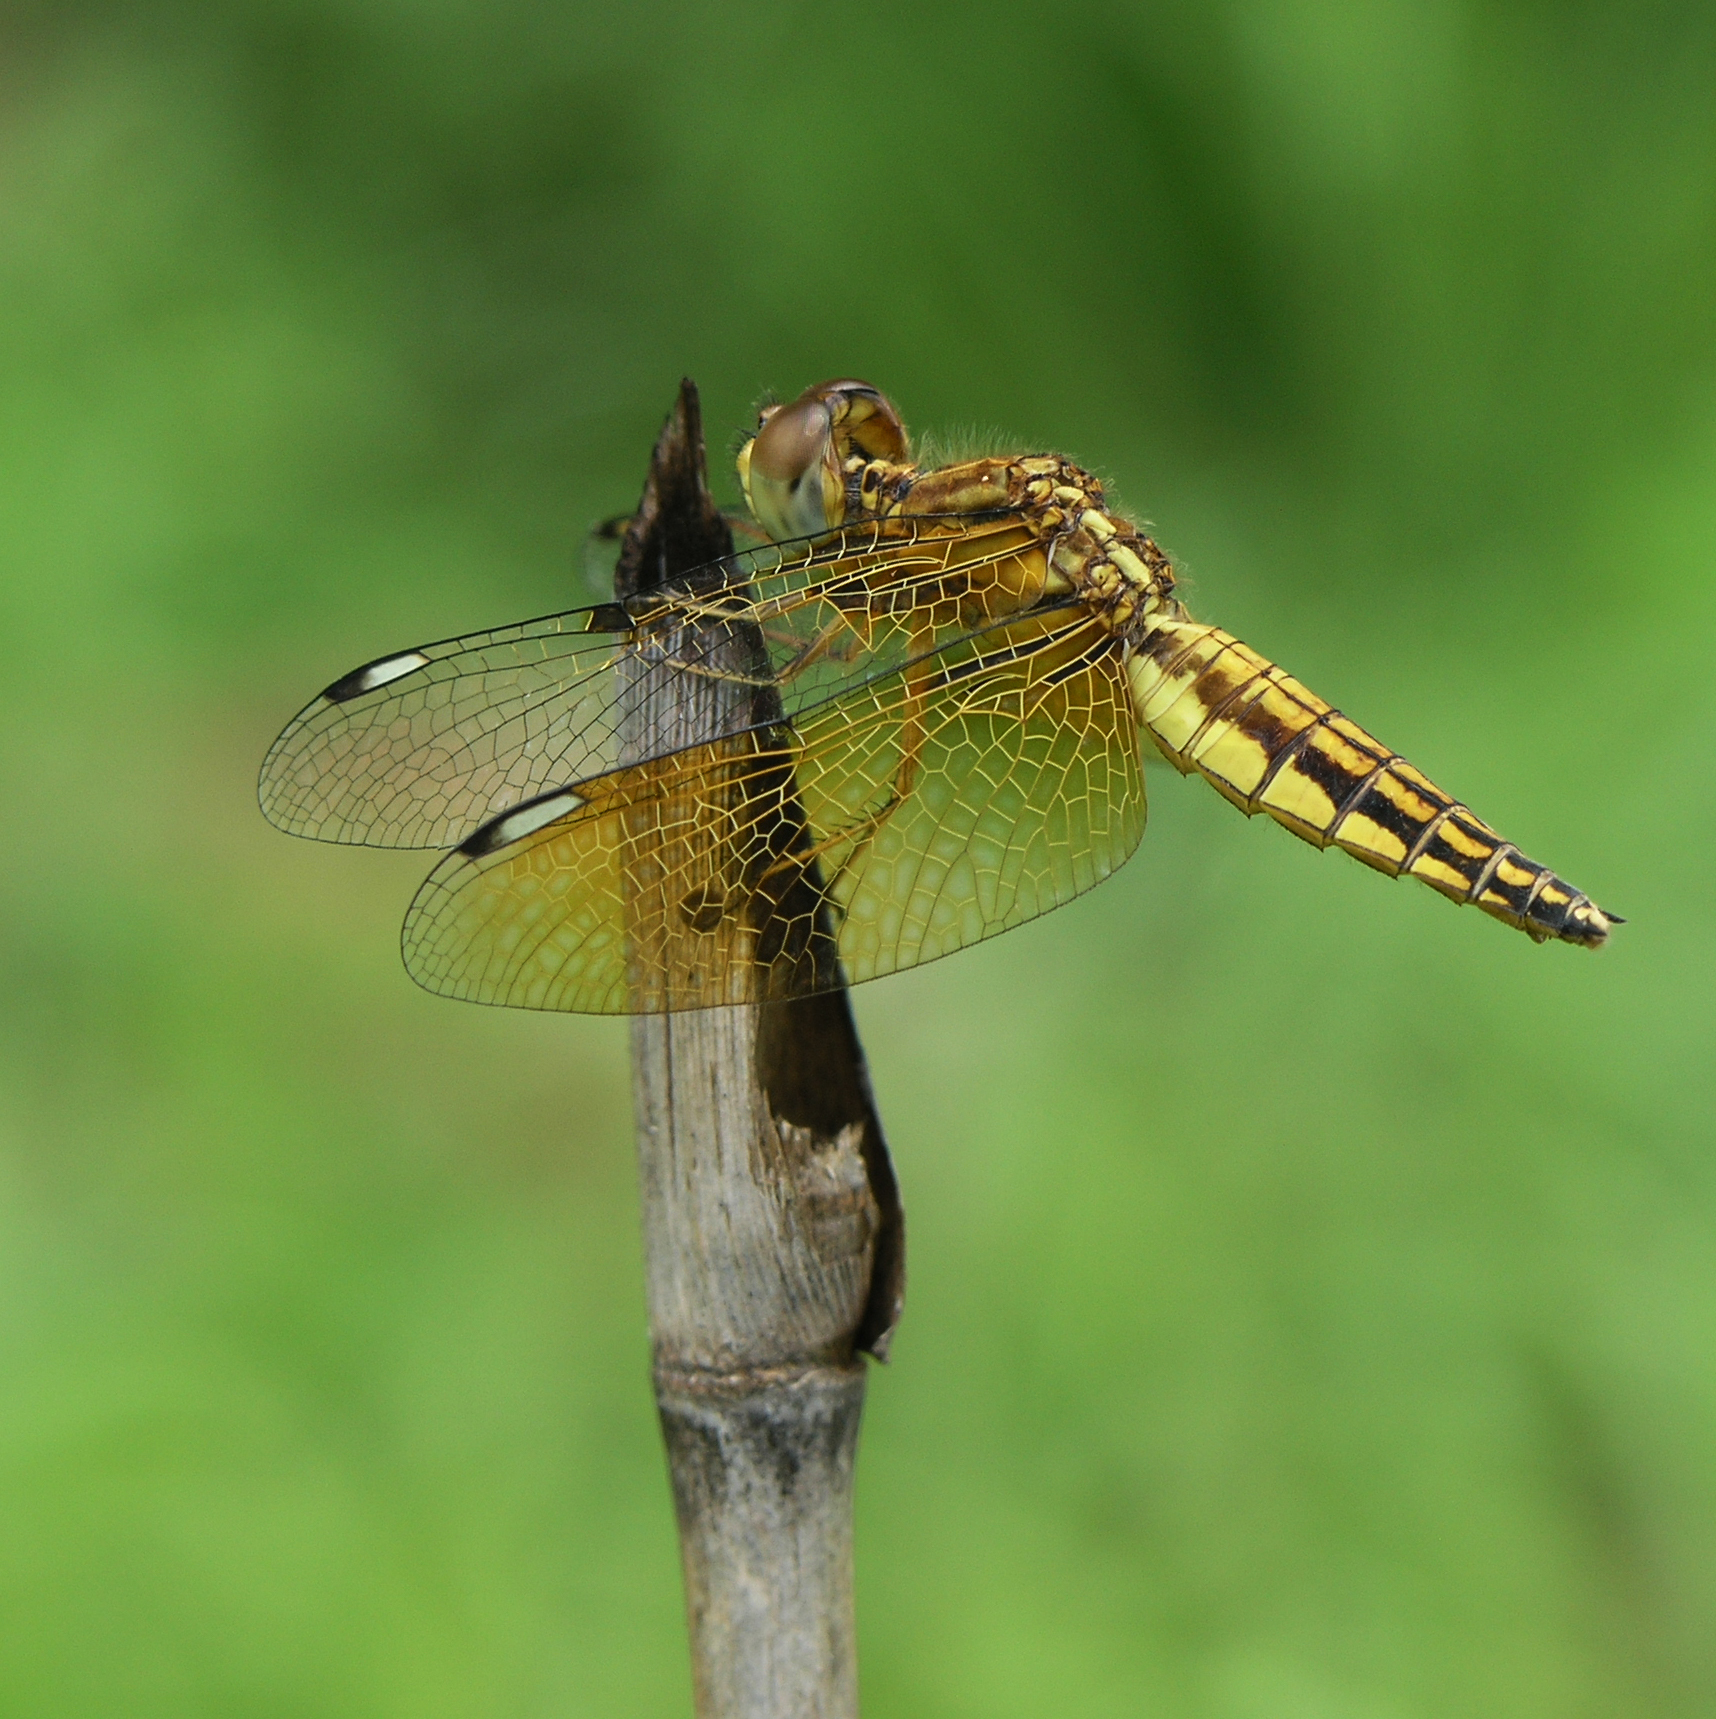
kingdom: Animalia
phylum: Arthropoda
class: Insecta
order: Odonata
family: Libellulidae
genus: Palpopleura
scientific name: Palpopleura sexmaculata
